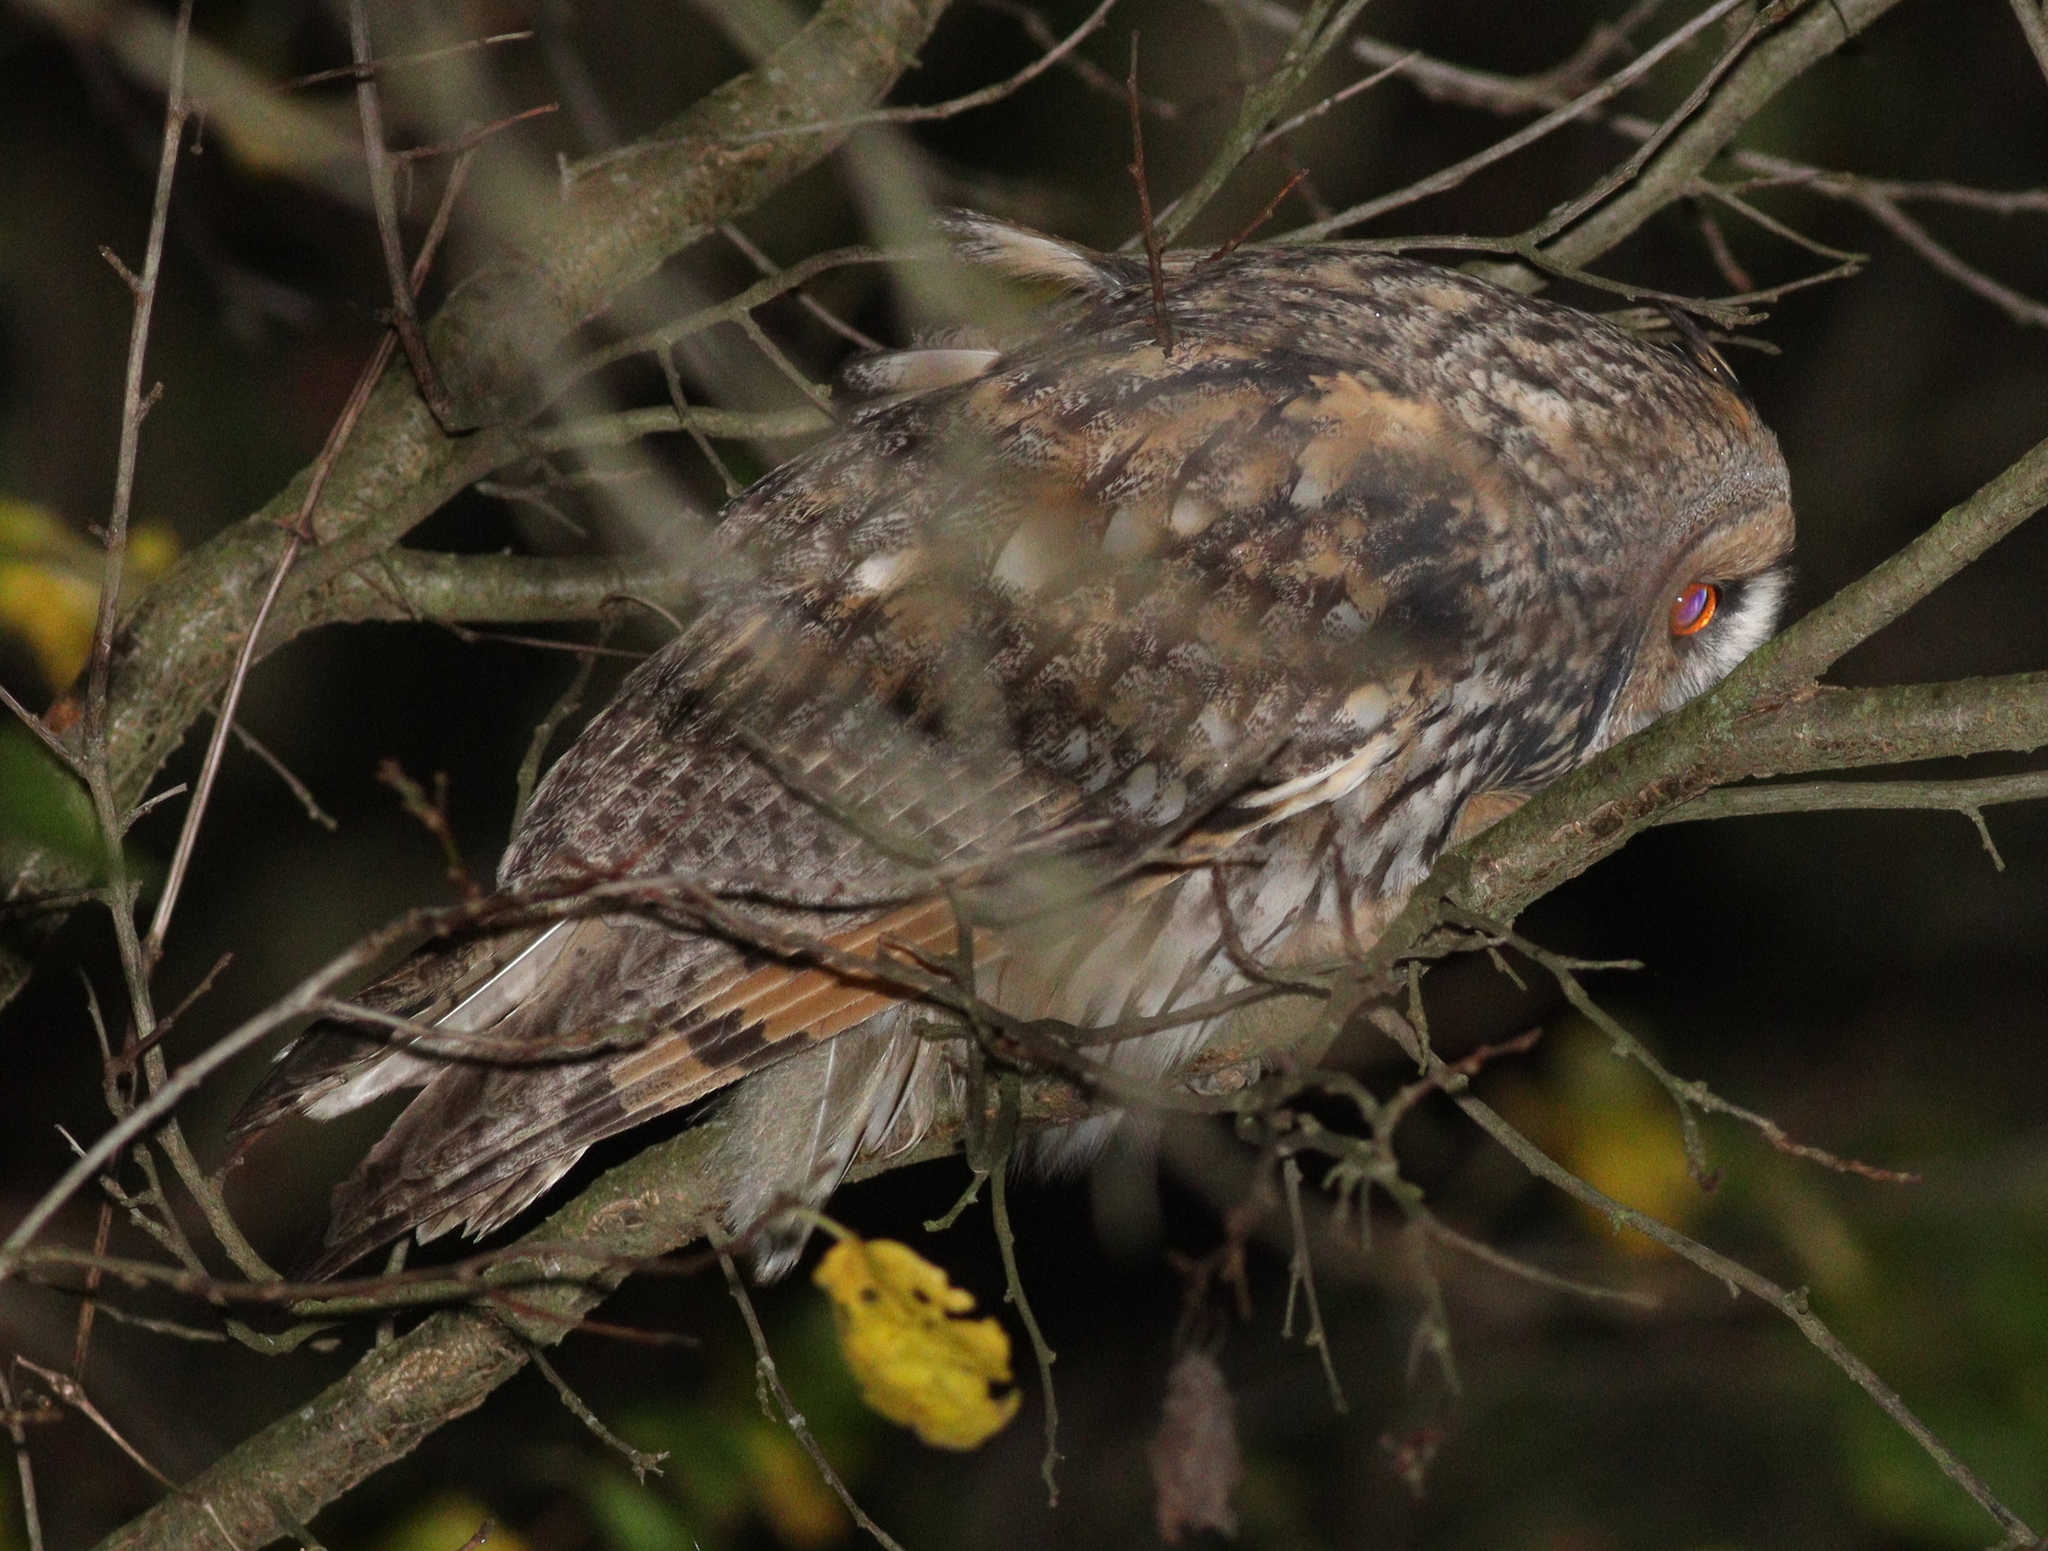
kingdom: Animalia
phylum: Chordata
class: Aves
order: Strigiformes
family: Strigidae
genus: Asio
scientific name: Asio otus
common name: Long-eared owl
